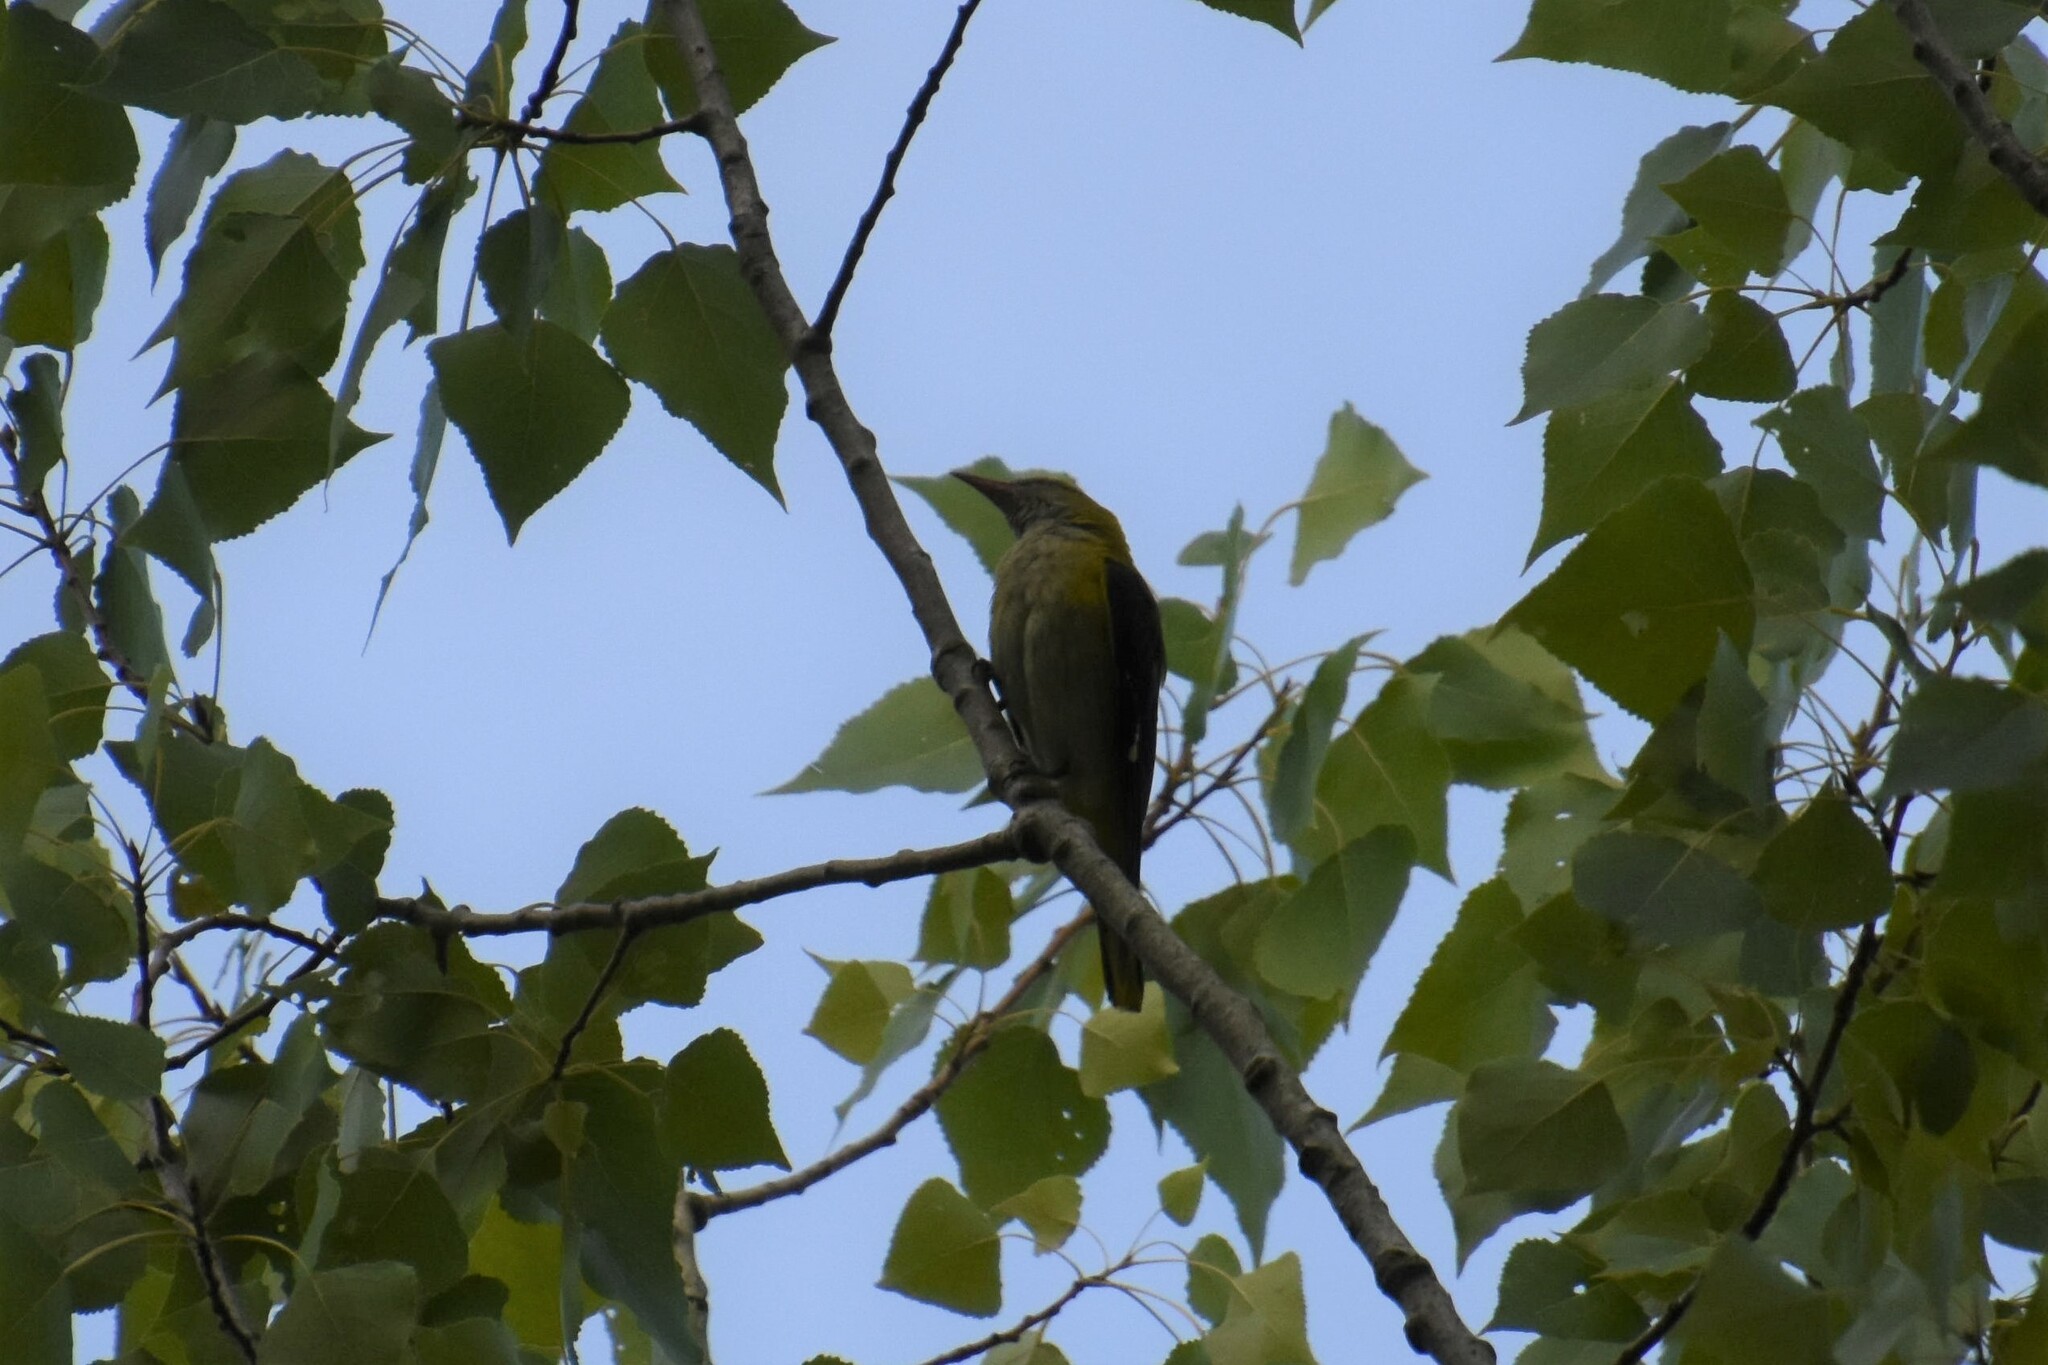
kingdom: Animalia
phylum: Chordata
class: Aves
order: Passeriformes
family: Oriolidae
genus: Oriolus
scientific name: Oriolus oriolus
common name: Eurasian golden oriole
